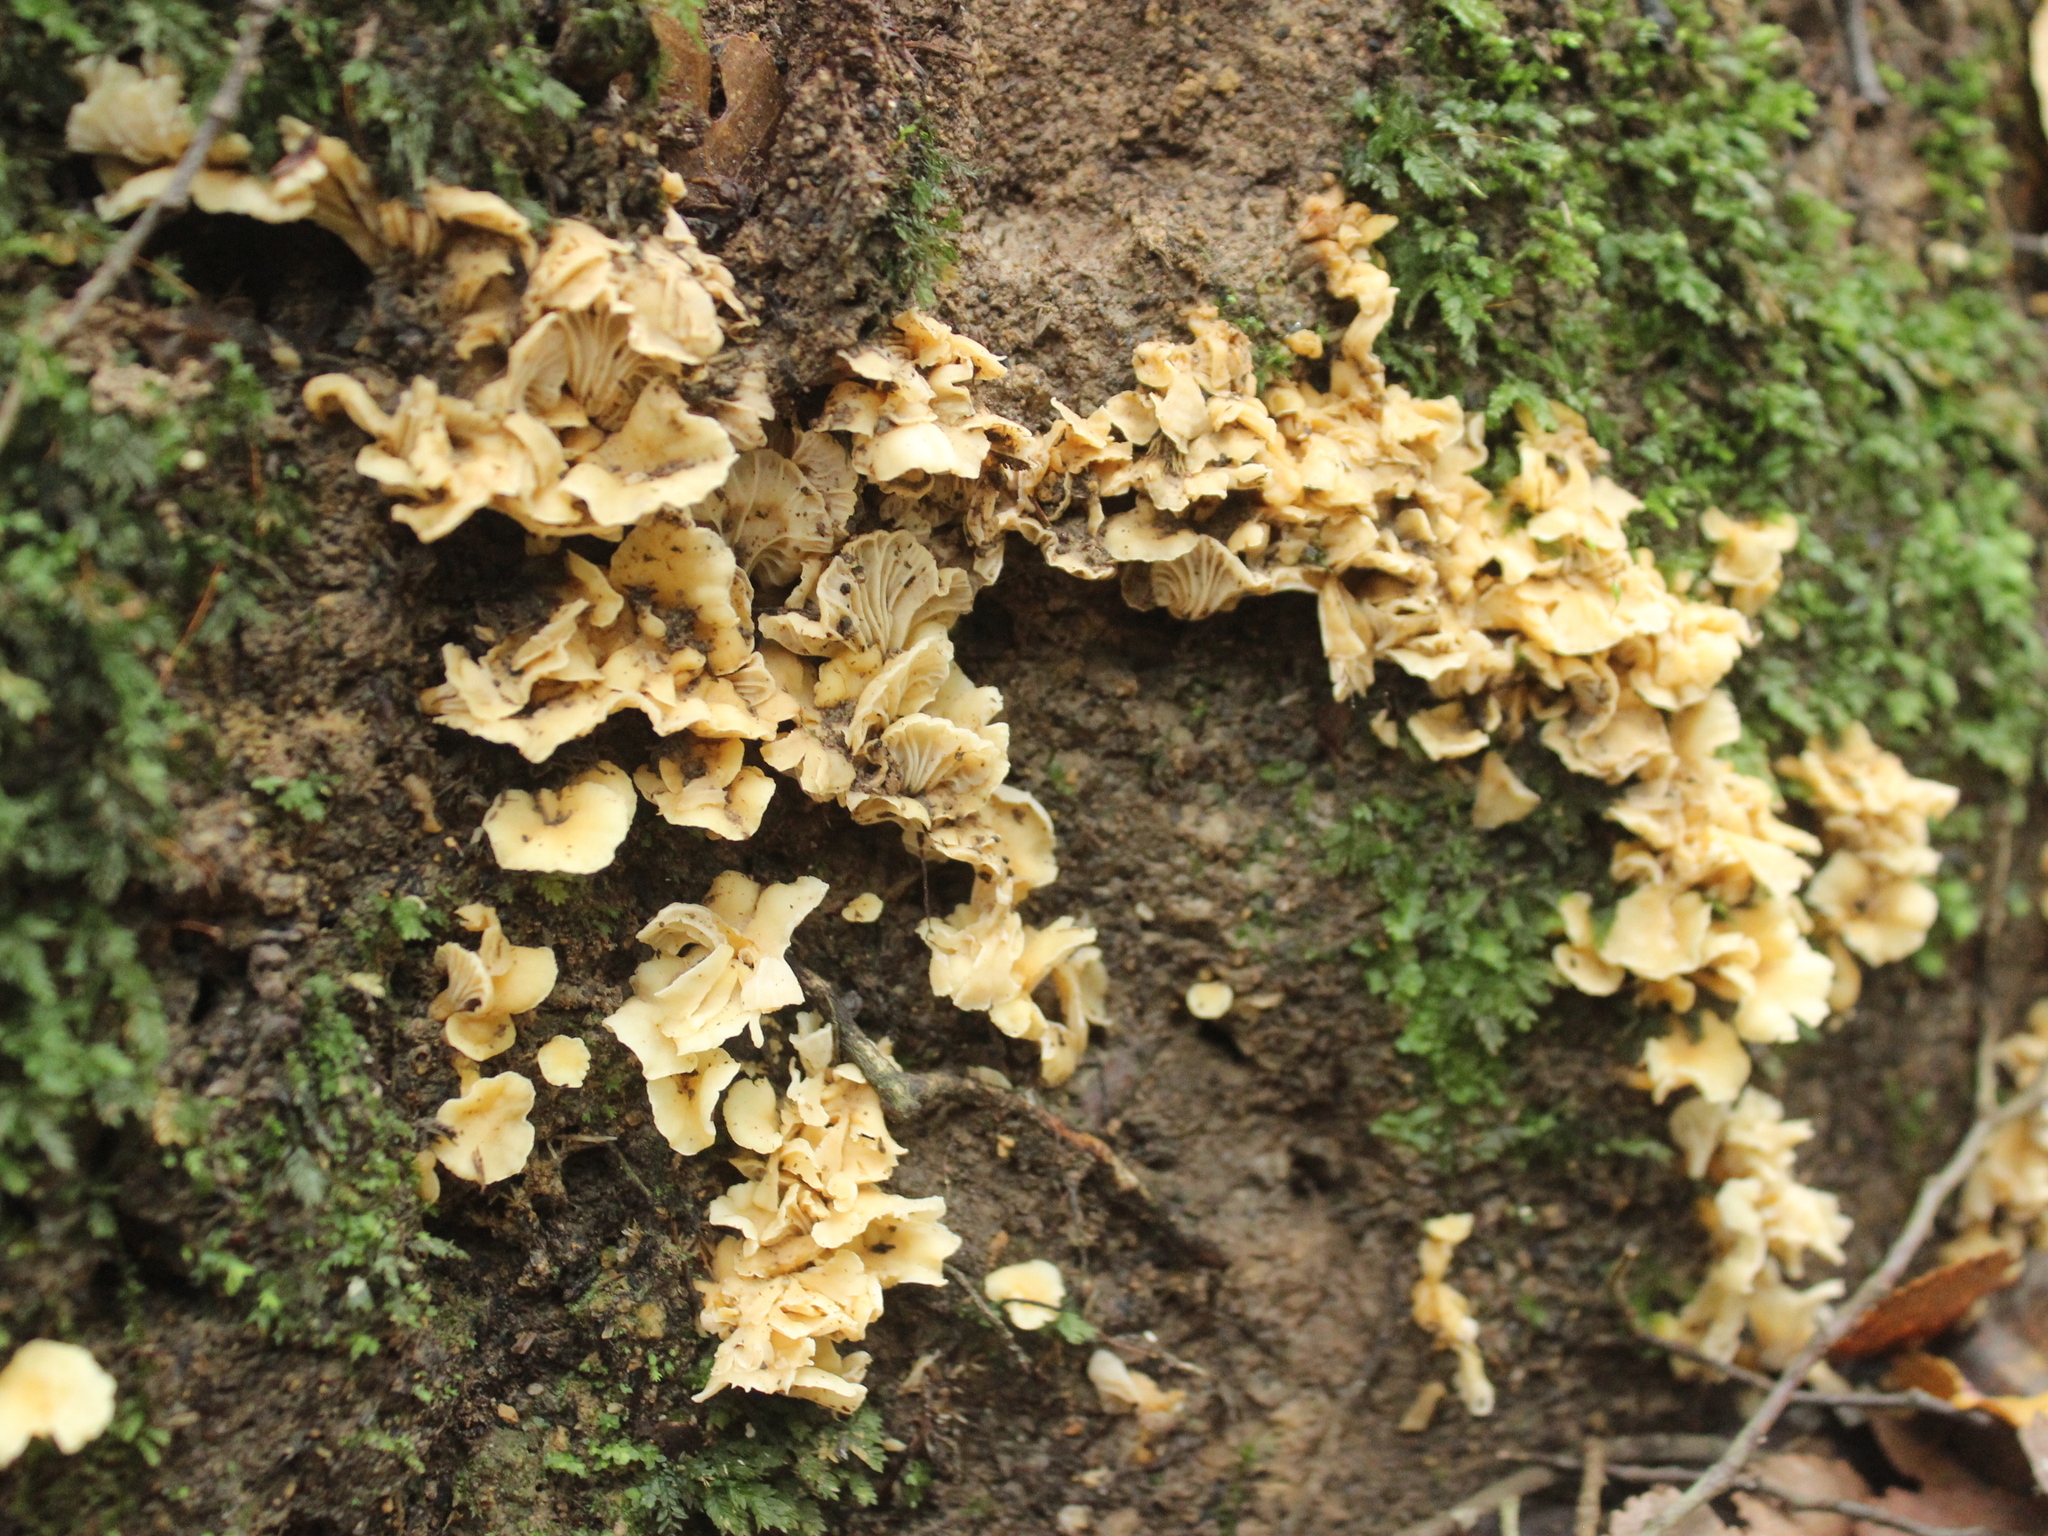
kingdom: Fungi
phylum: Basidiomycota
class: Agaricomycetes
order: Cantharellales
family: Hydnaceae
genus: Cantharellus
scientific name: Cantharellus wellingtonensis
